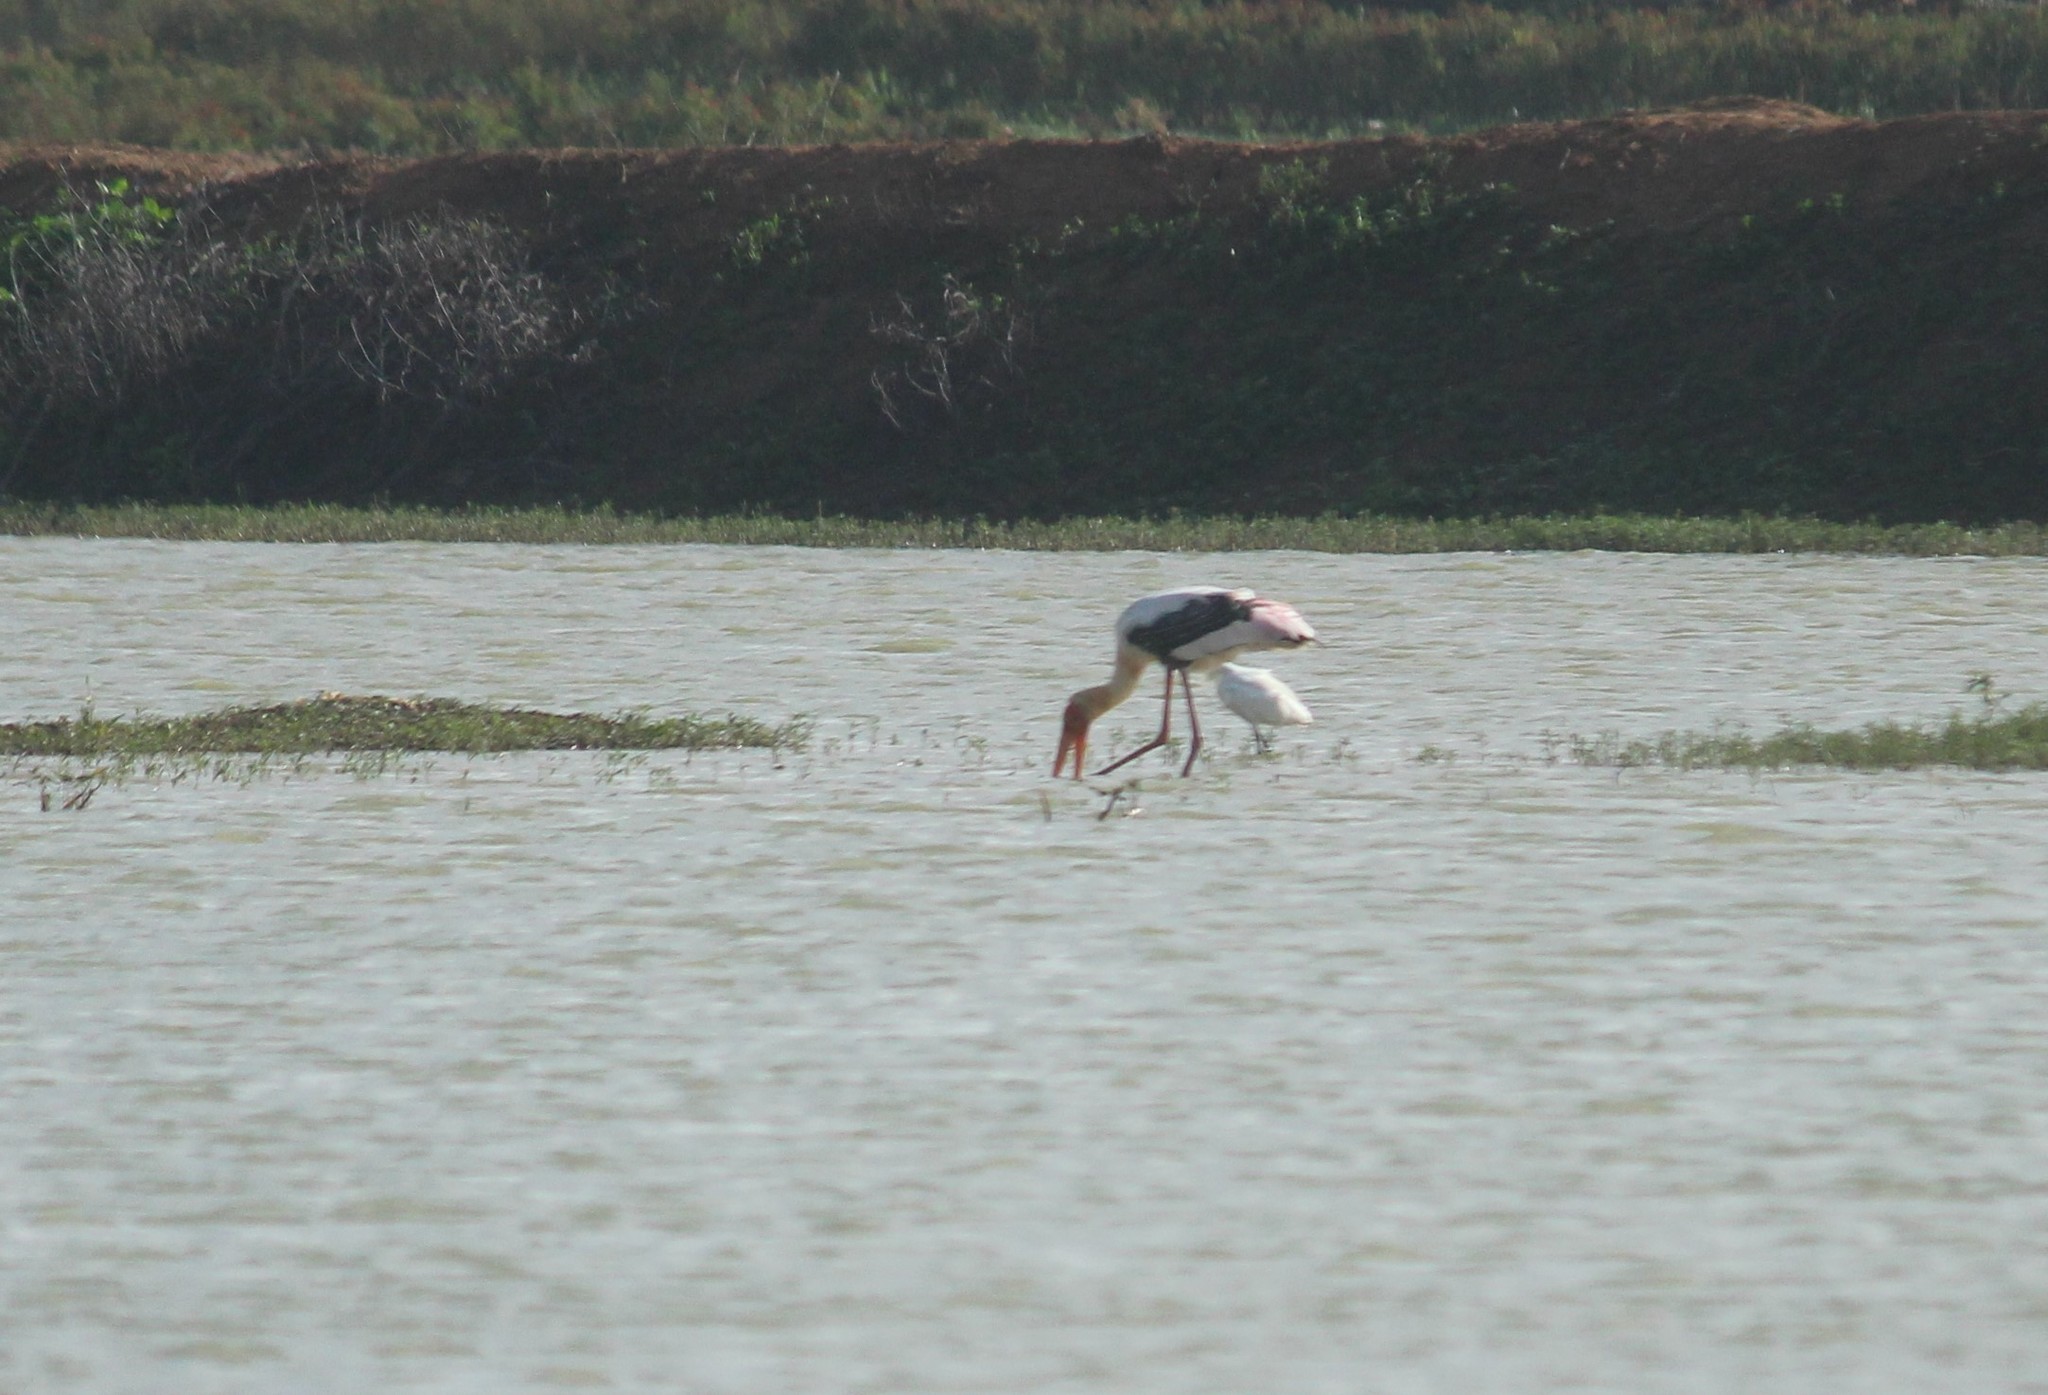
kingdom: Animalia
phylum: Chordata
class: Aves
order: Ciconiiformes
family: Ciconiidae
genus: Mycteria
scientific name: Mycteria leucocephala
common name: Painted stork
